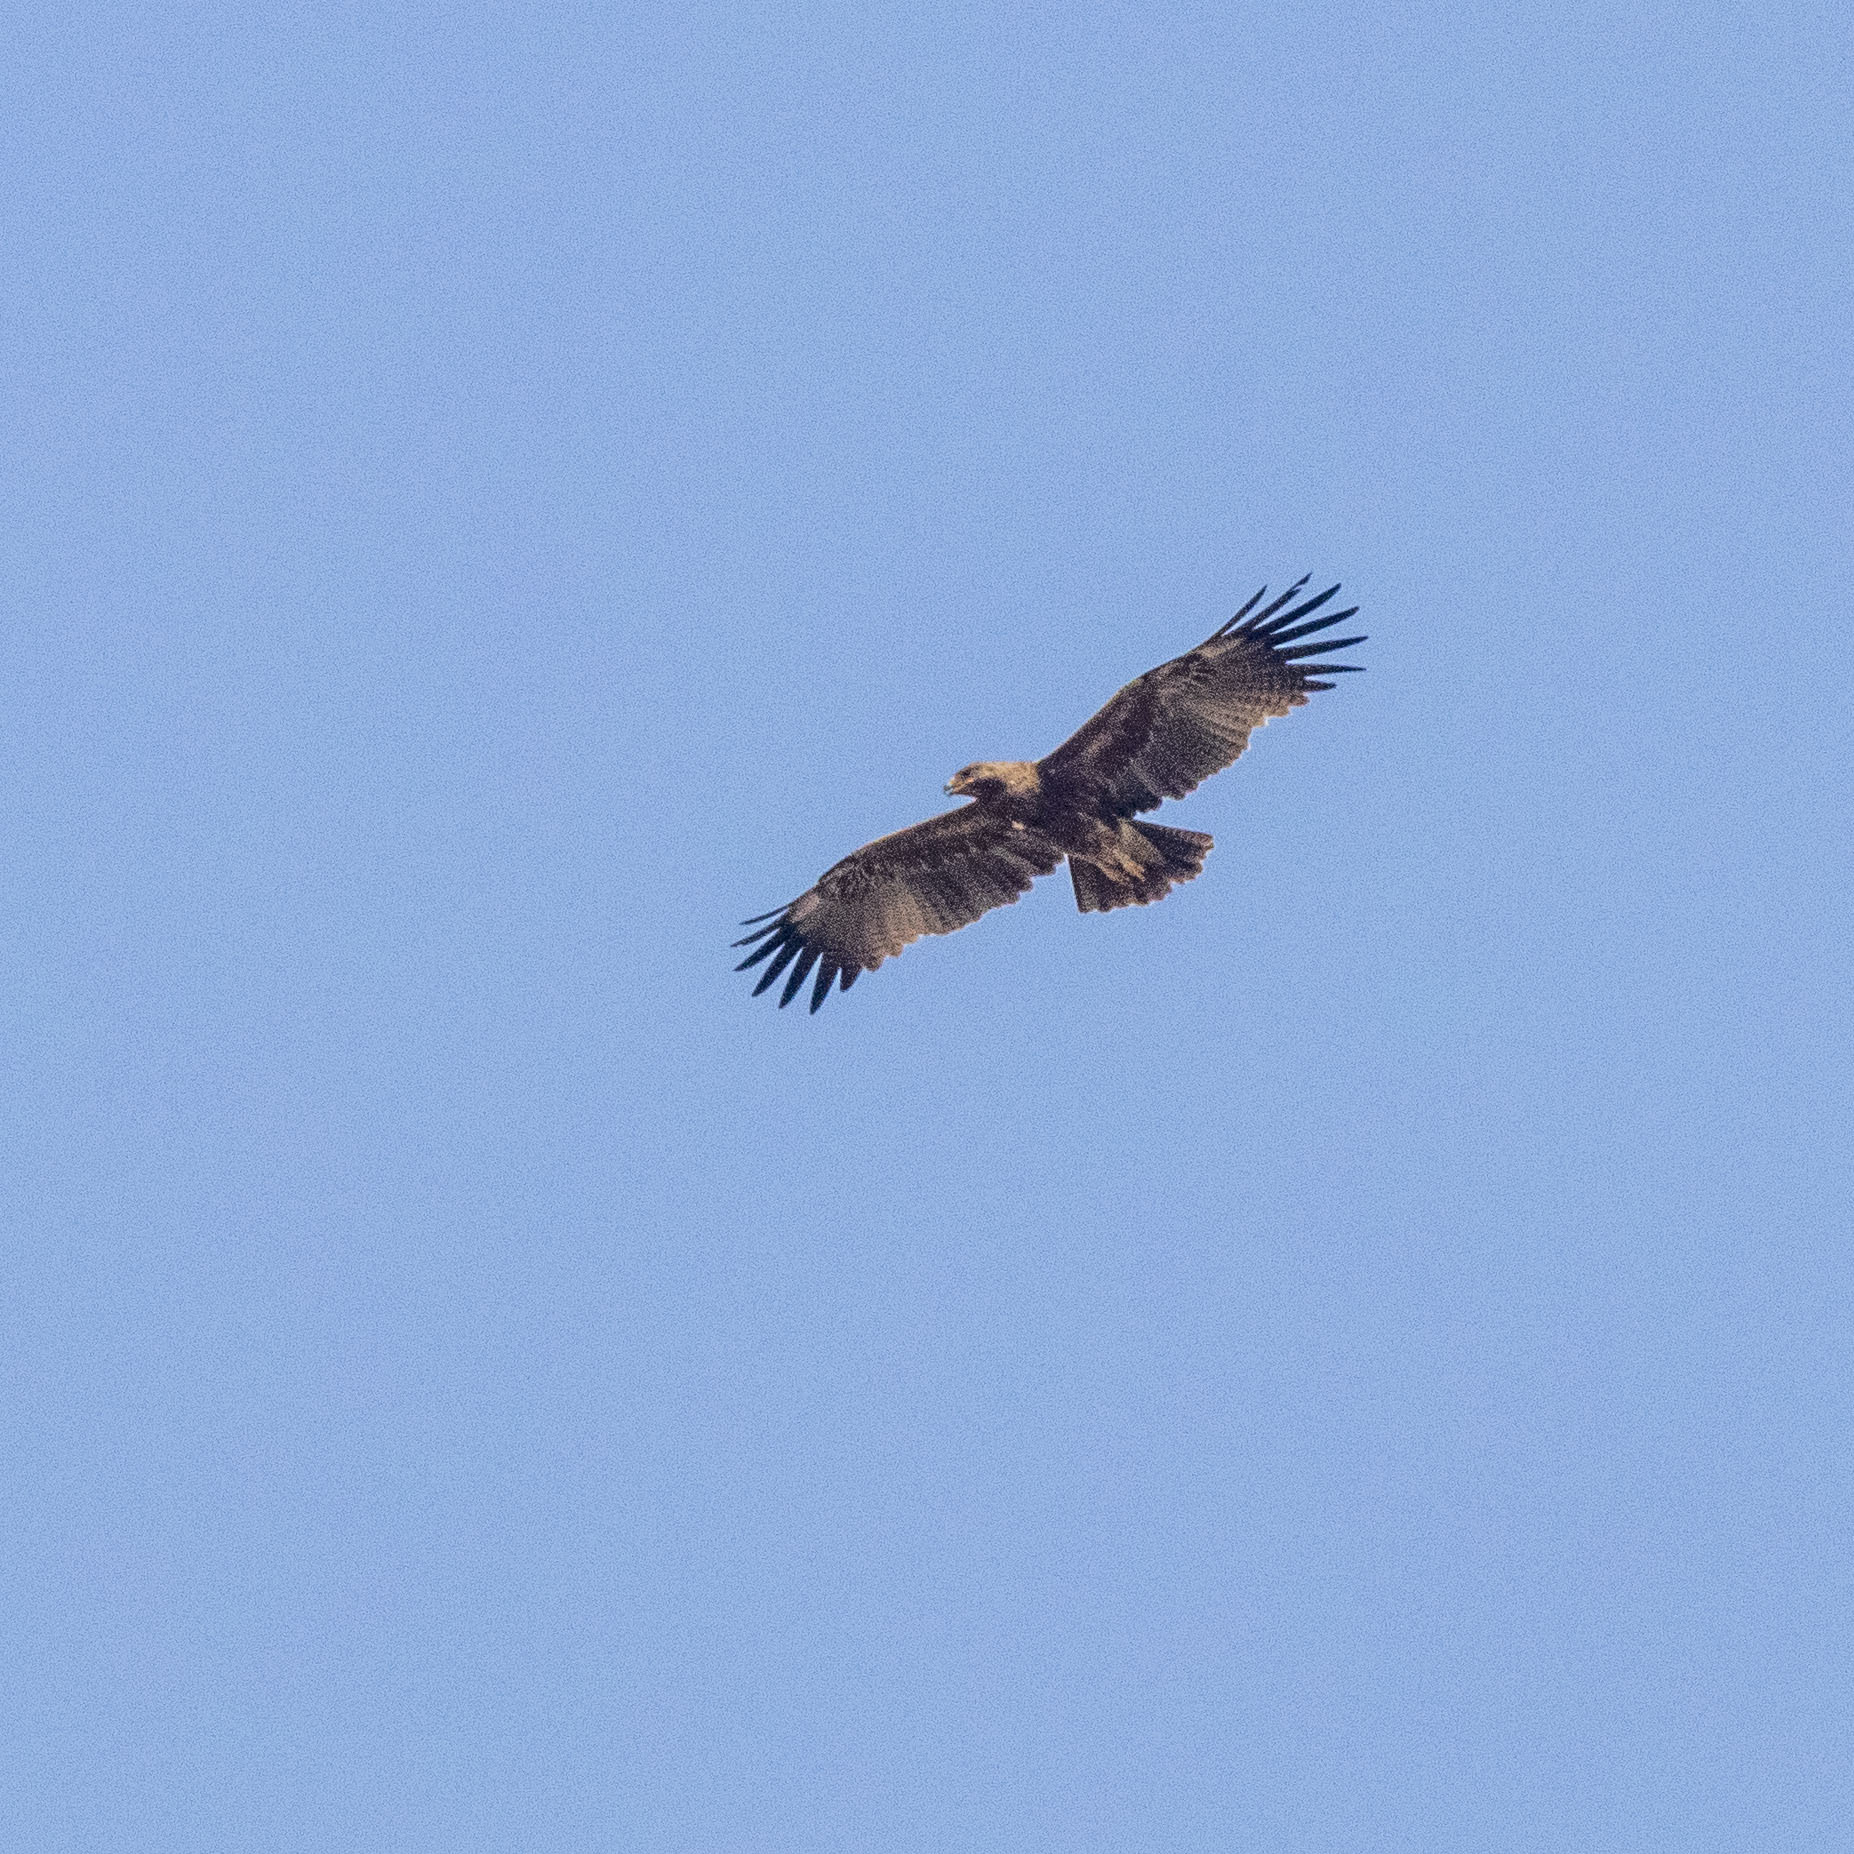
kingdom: Animalia
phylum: Chordata
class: Aves
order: Accipitriformes
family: Accipitridae
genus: Aquila
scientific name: Aquila clanga
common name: Greater spotted eagle
